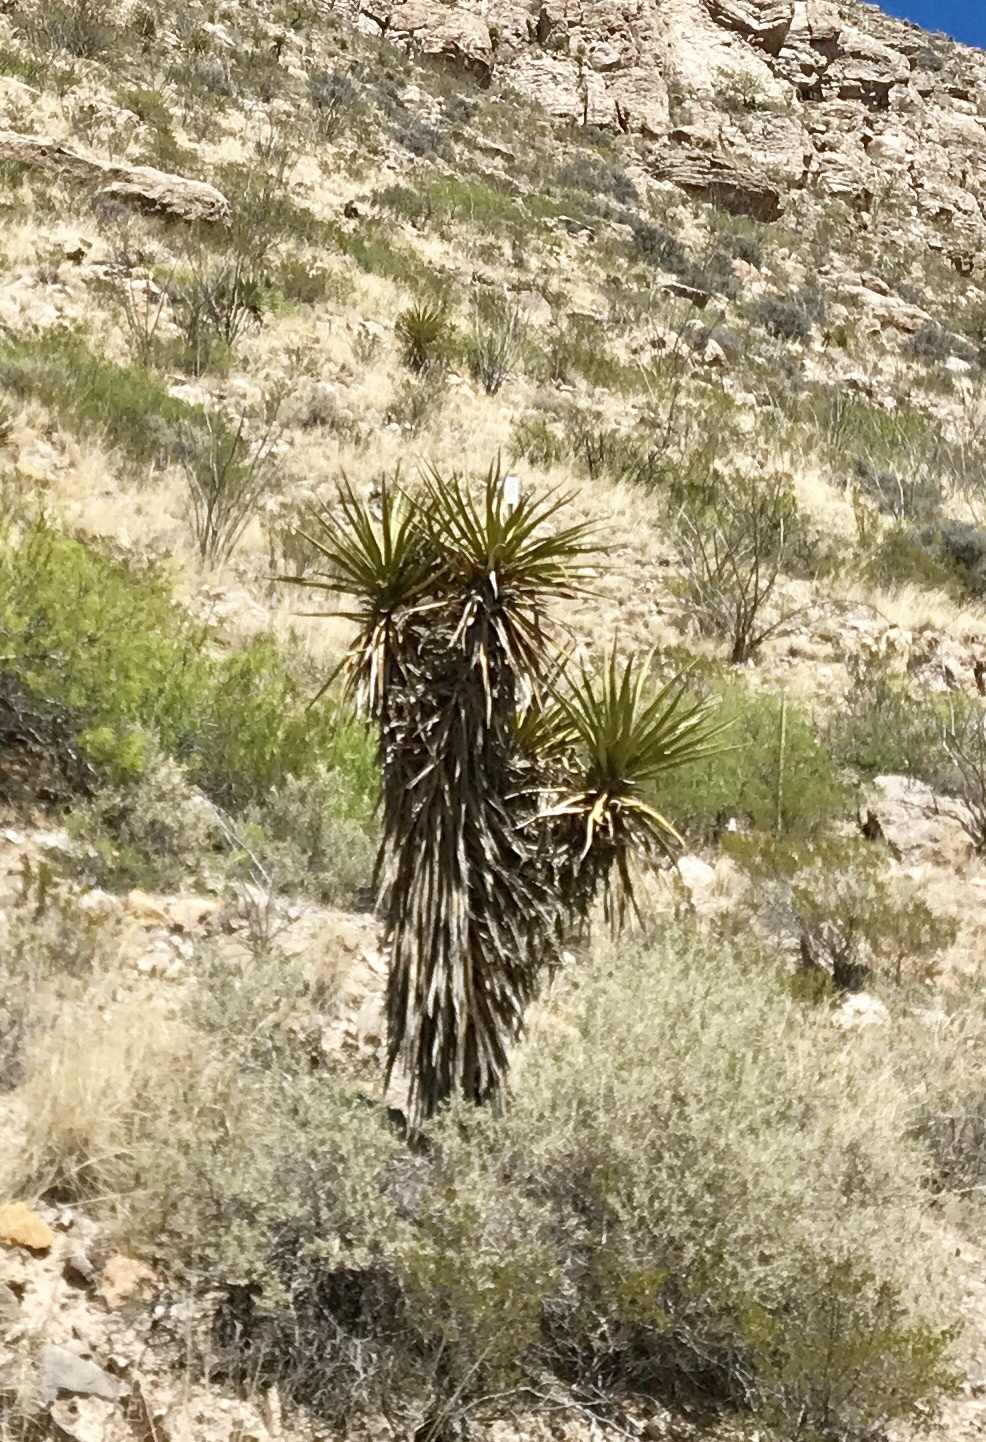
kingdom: Plantae
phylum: Tracheophyta
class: Liliopsida
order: Asparagales
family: Asparagaceae
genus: Yucca
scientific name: Yucca treculiana
